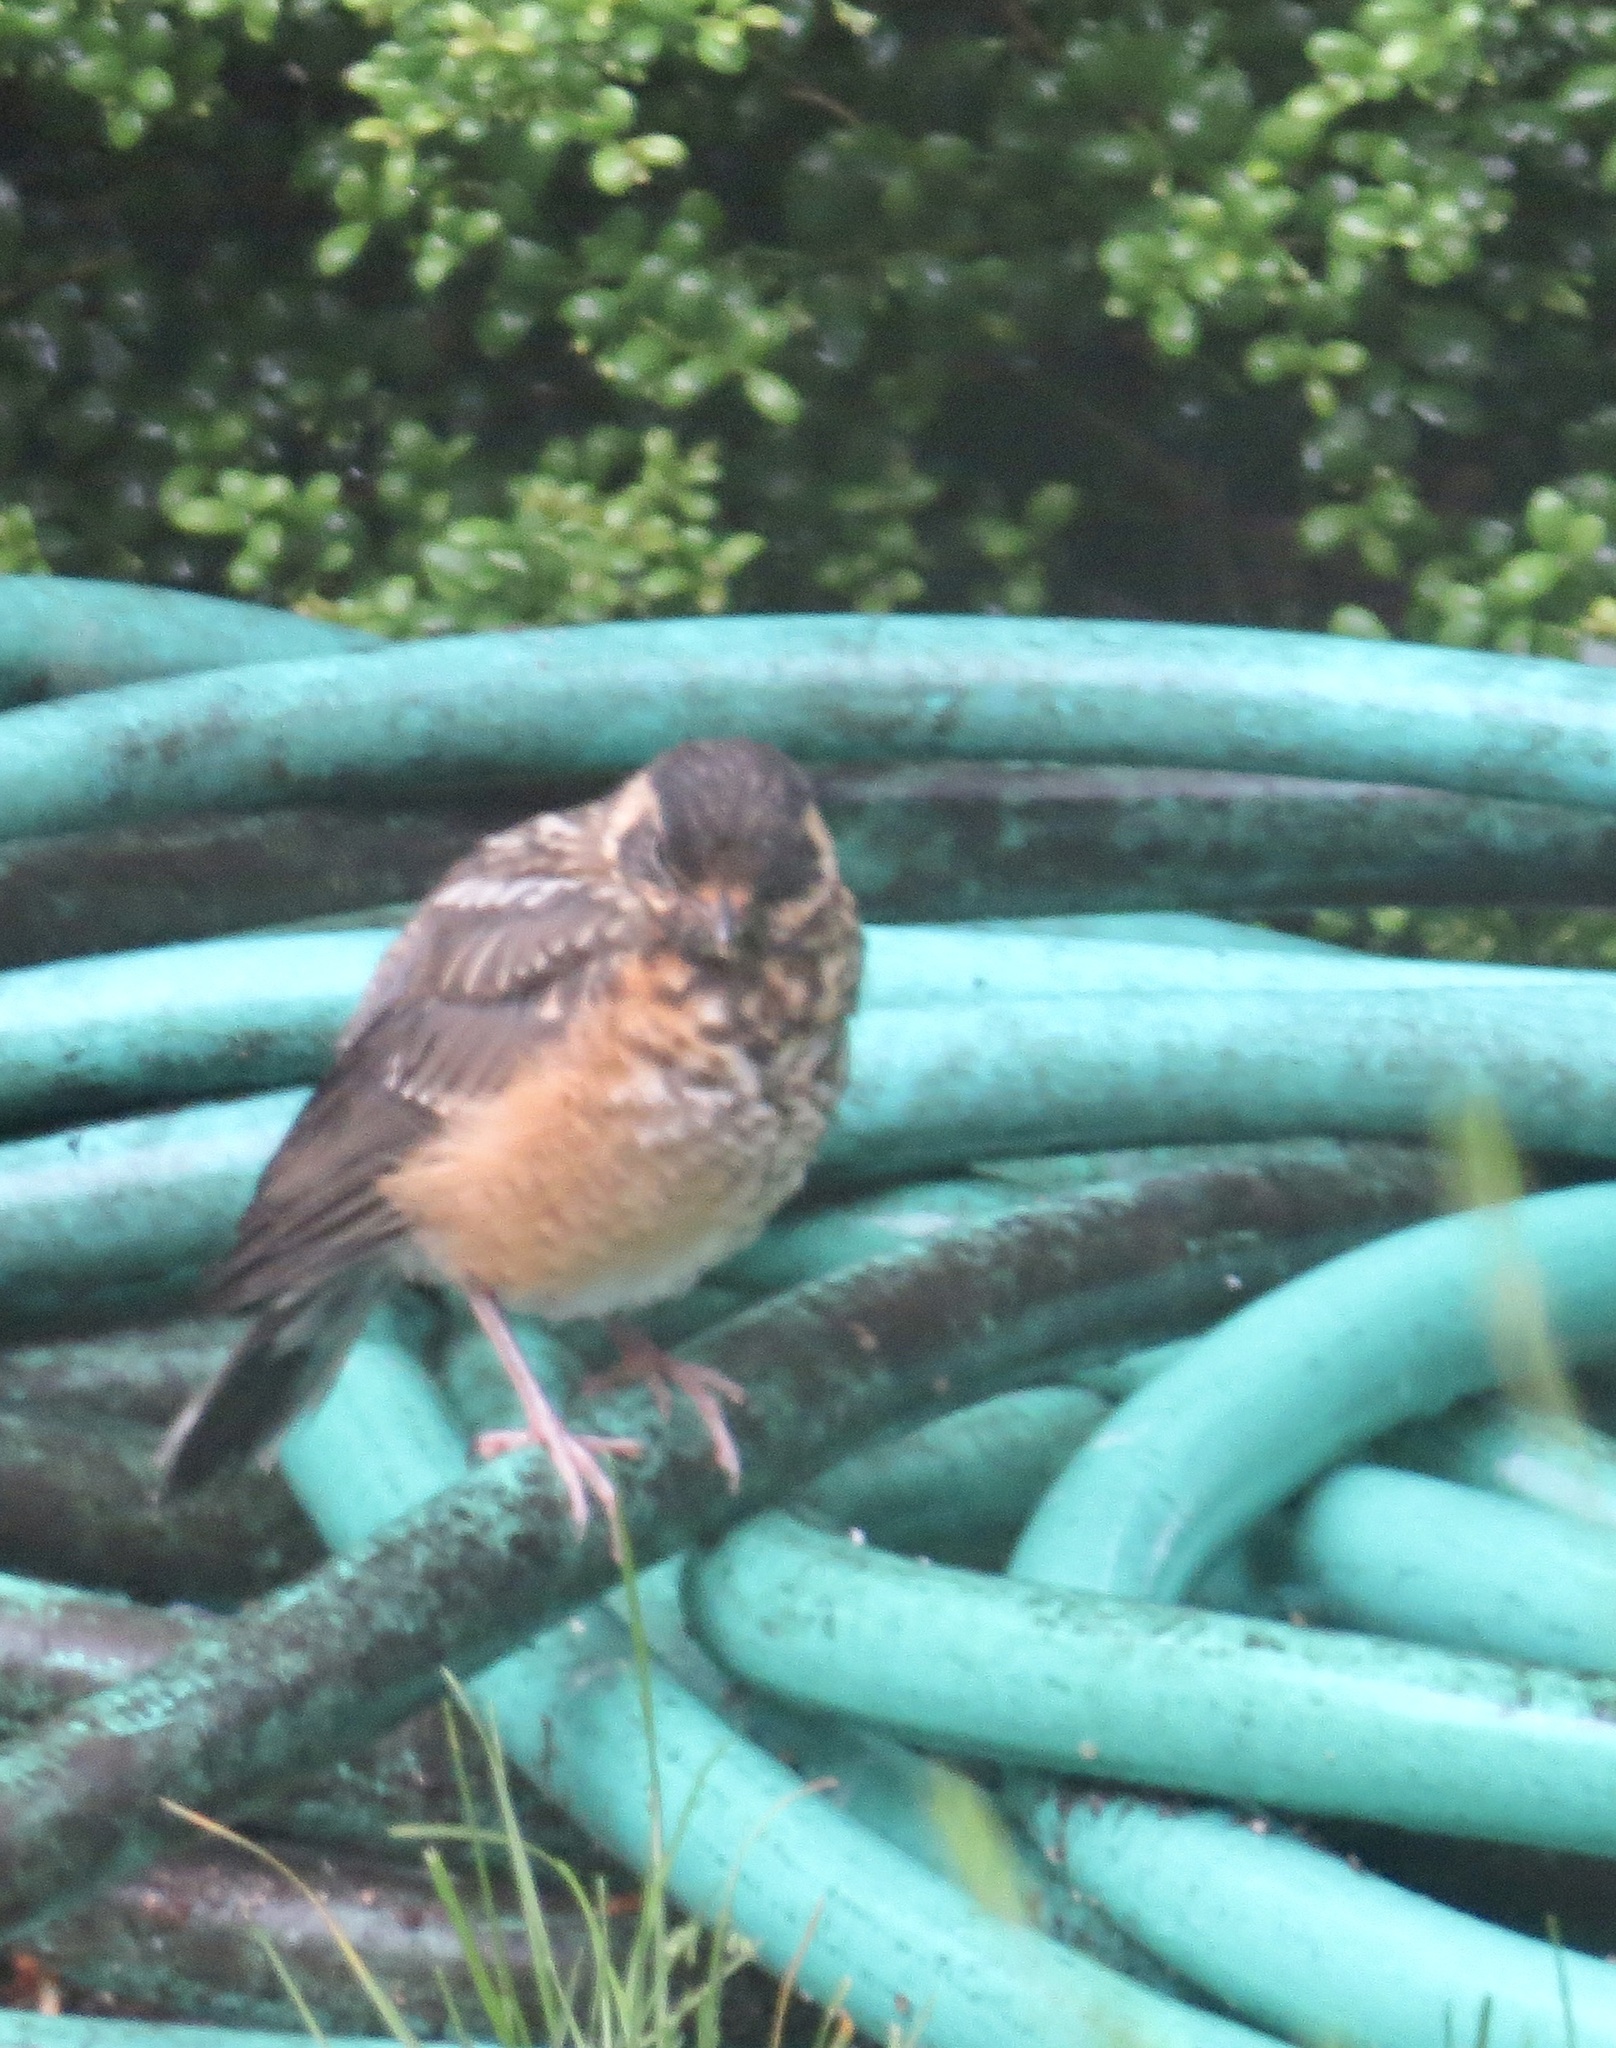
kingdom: Animalia
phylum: Chordata
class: Aves
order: Passeriformes
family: Turdidae
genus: Turdus
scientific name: Turdus migratorius
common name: American robin
